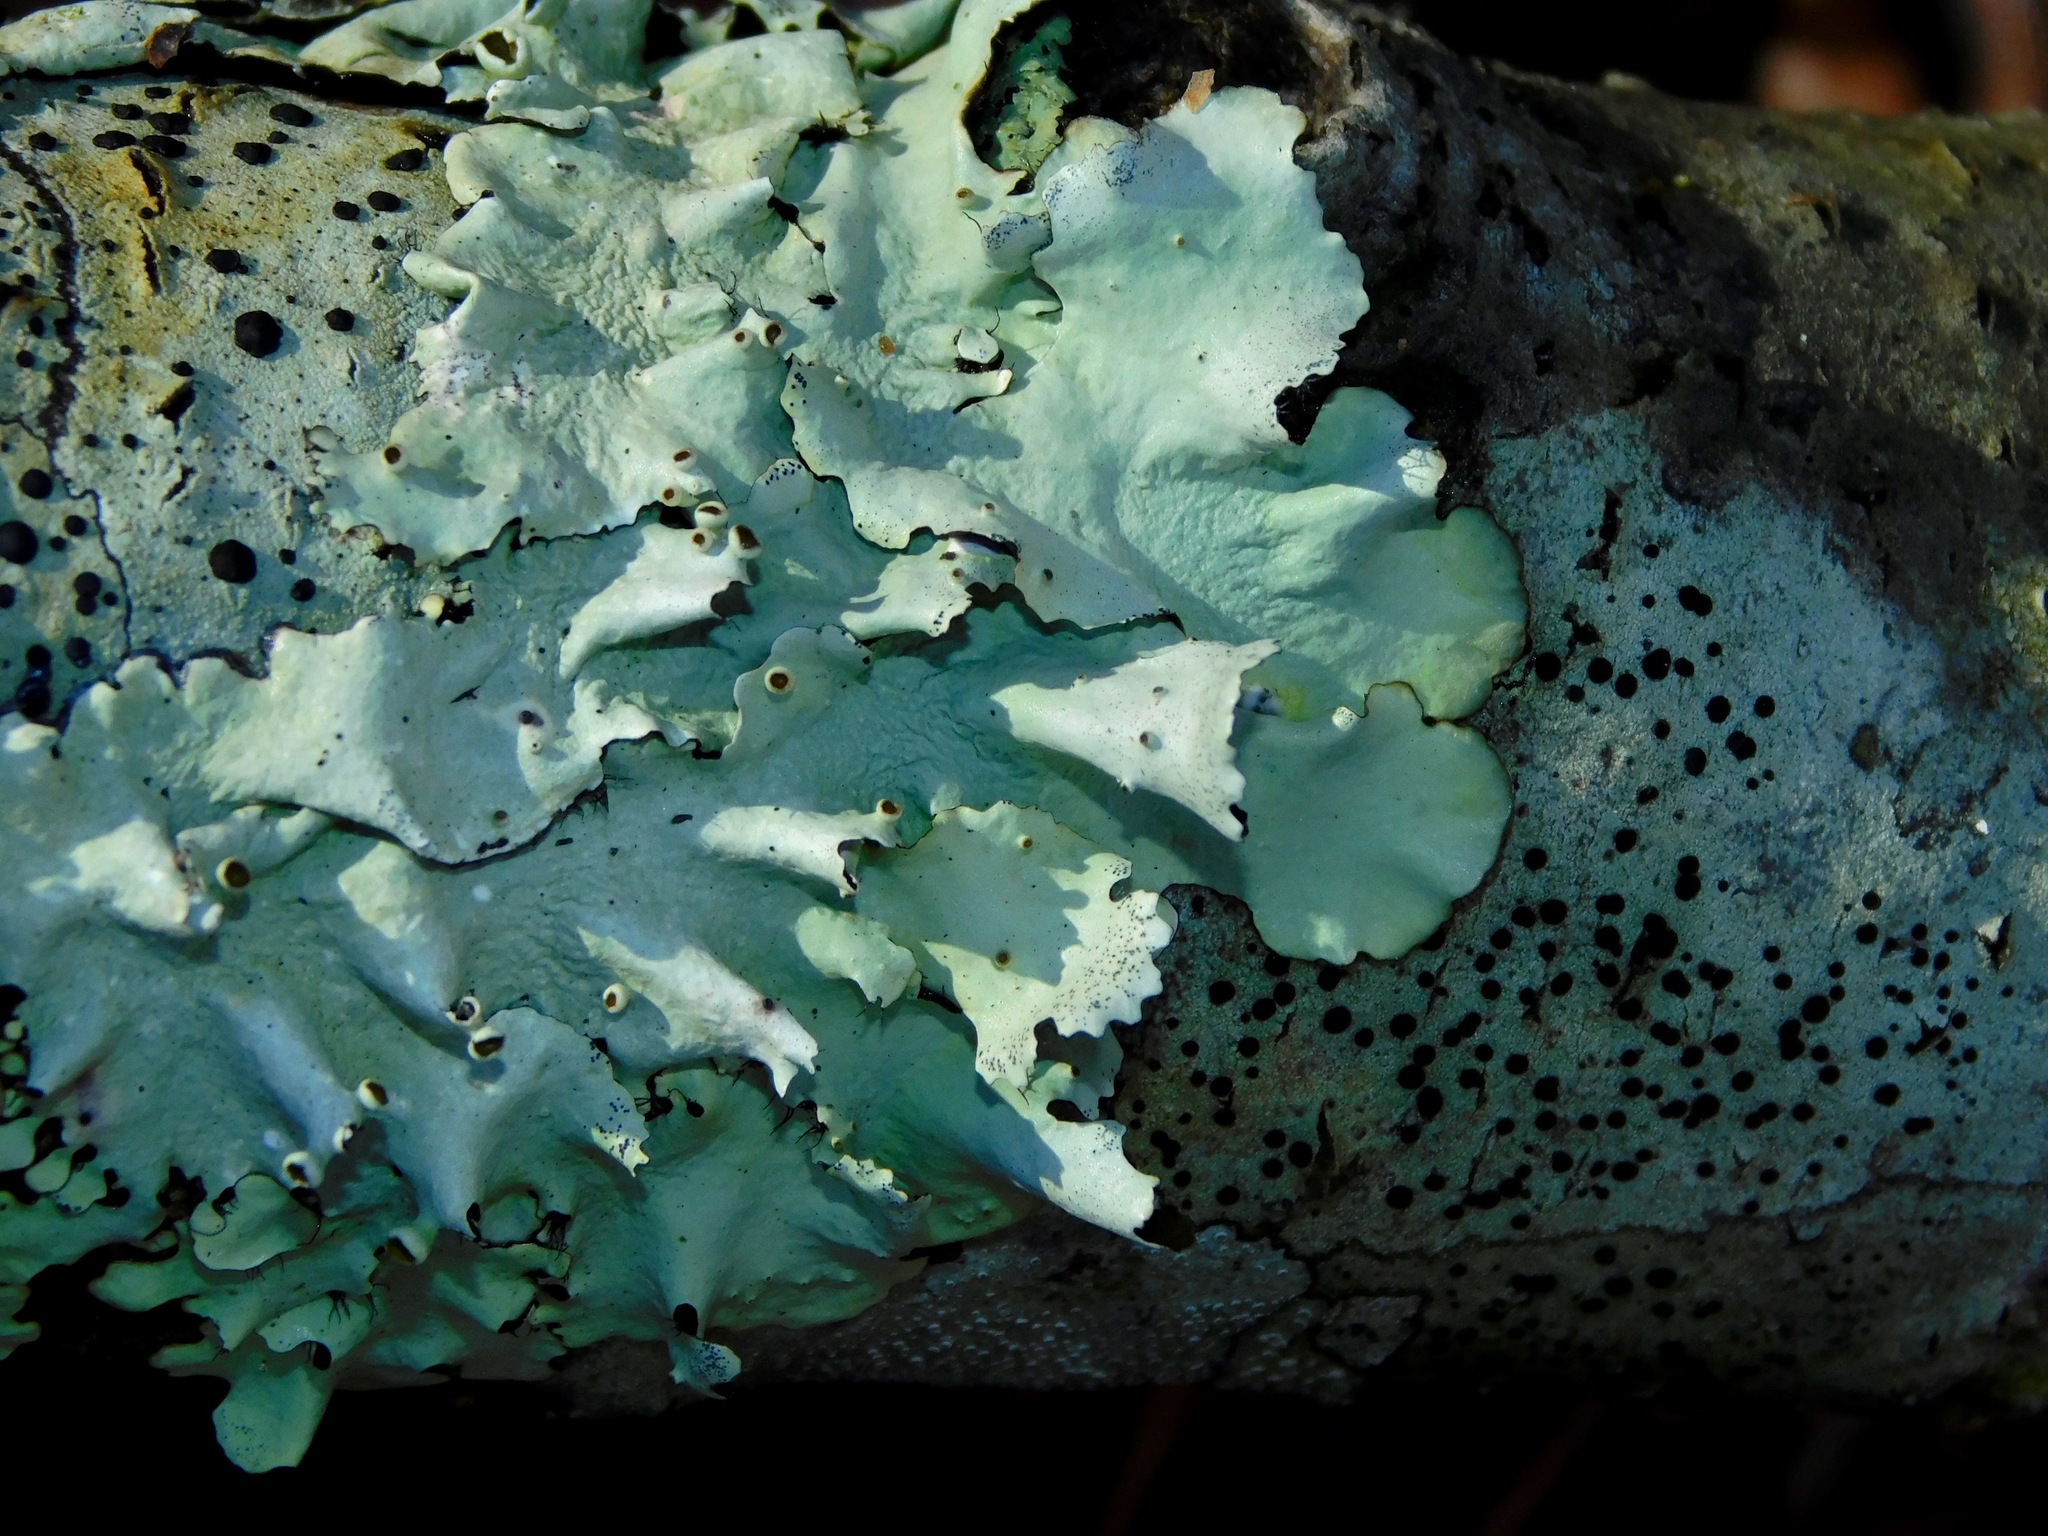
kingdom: Fungi
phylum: Ascomycota
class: Lecanoromycetes
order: Lecanorales
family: Parmeliaceae
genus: Parmotrema
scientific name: Parmotrema submarginale
